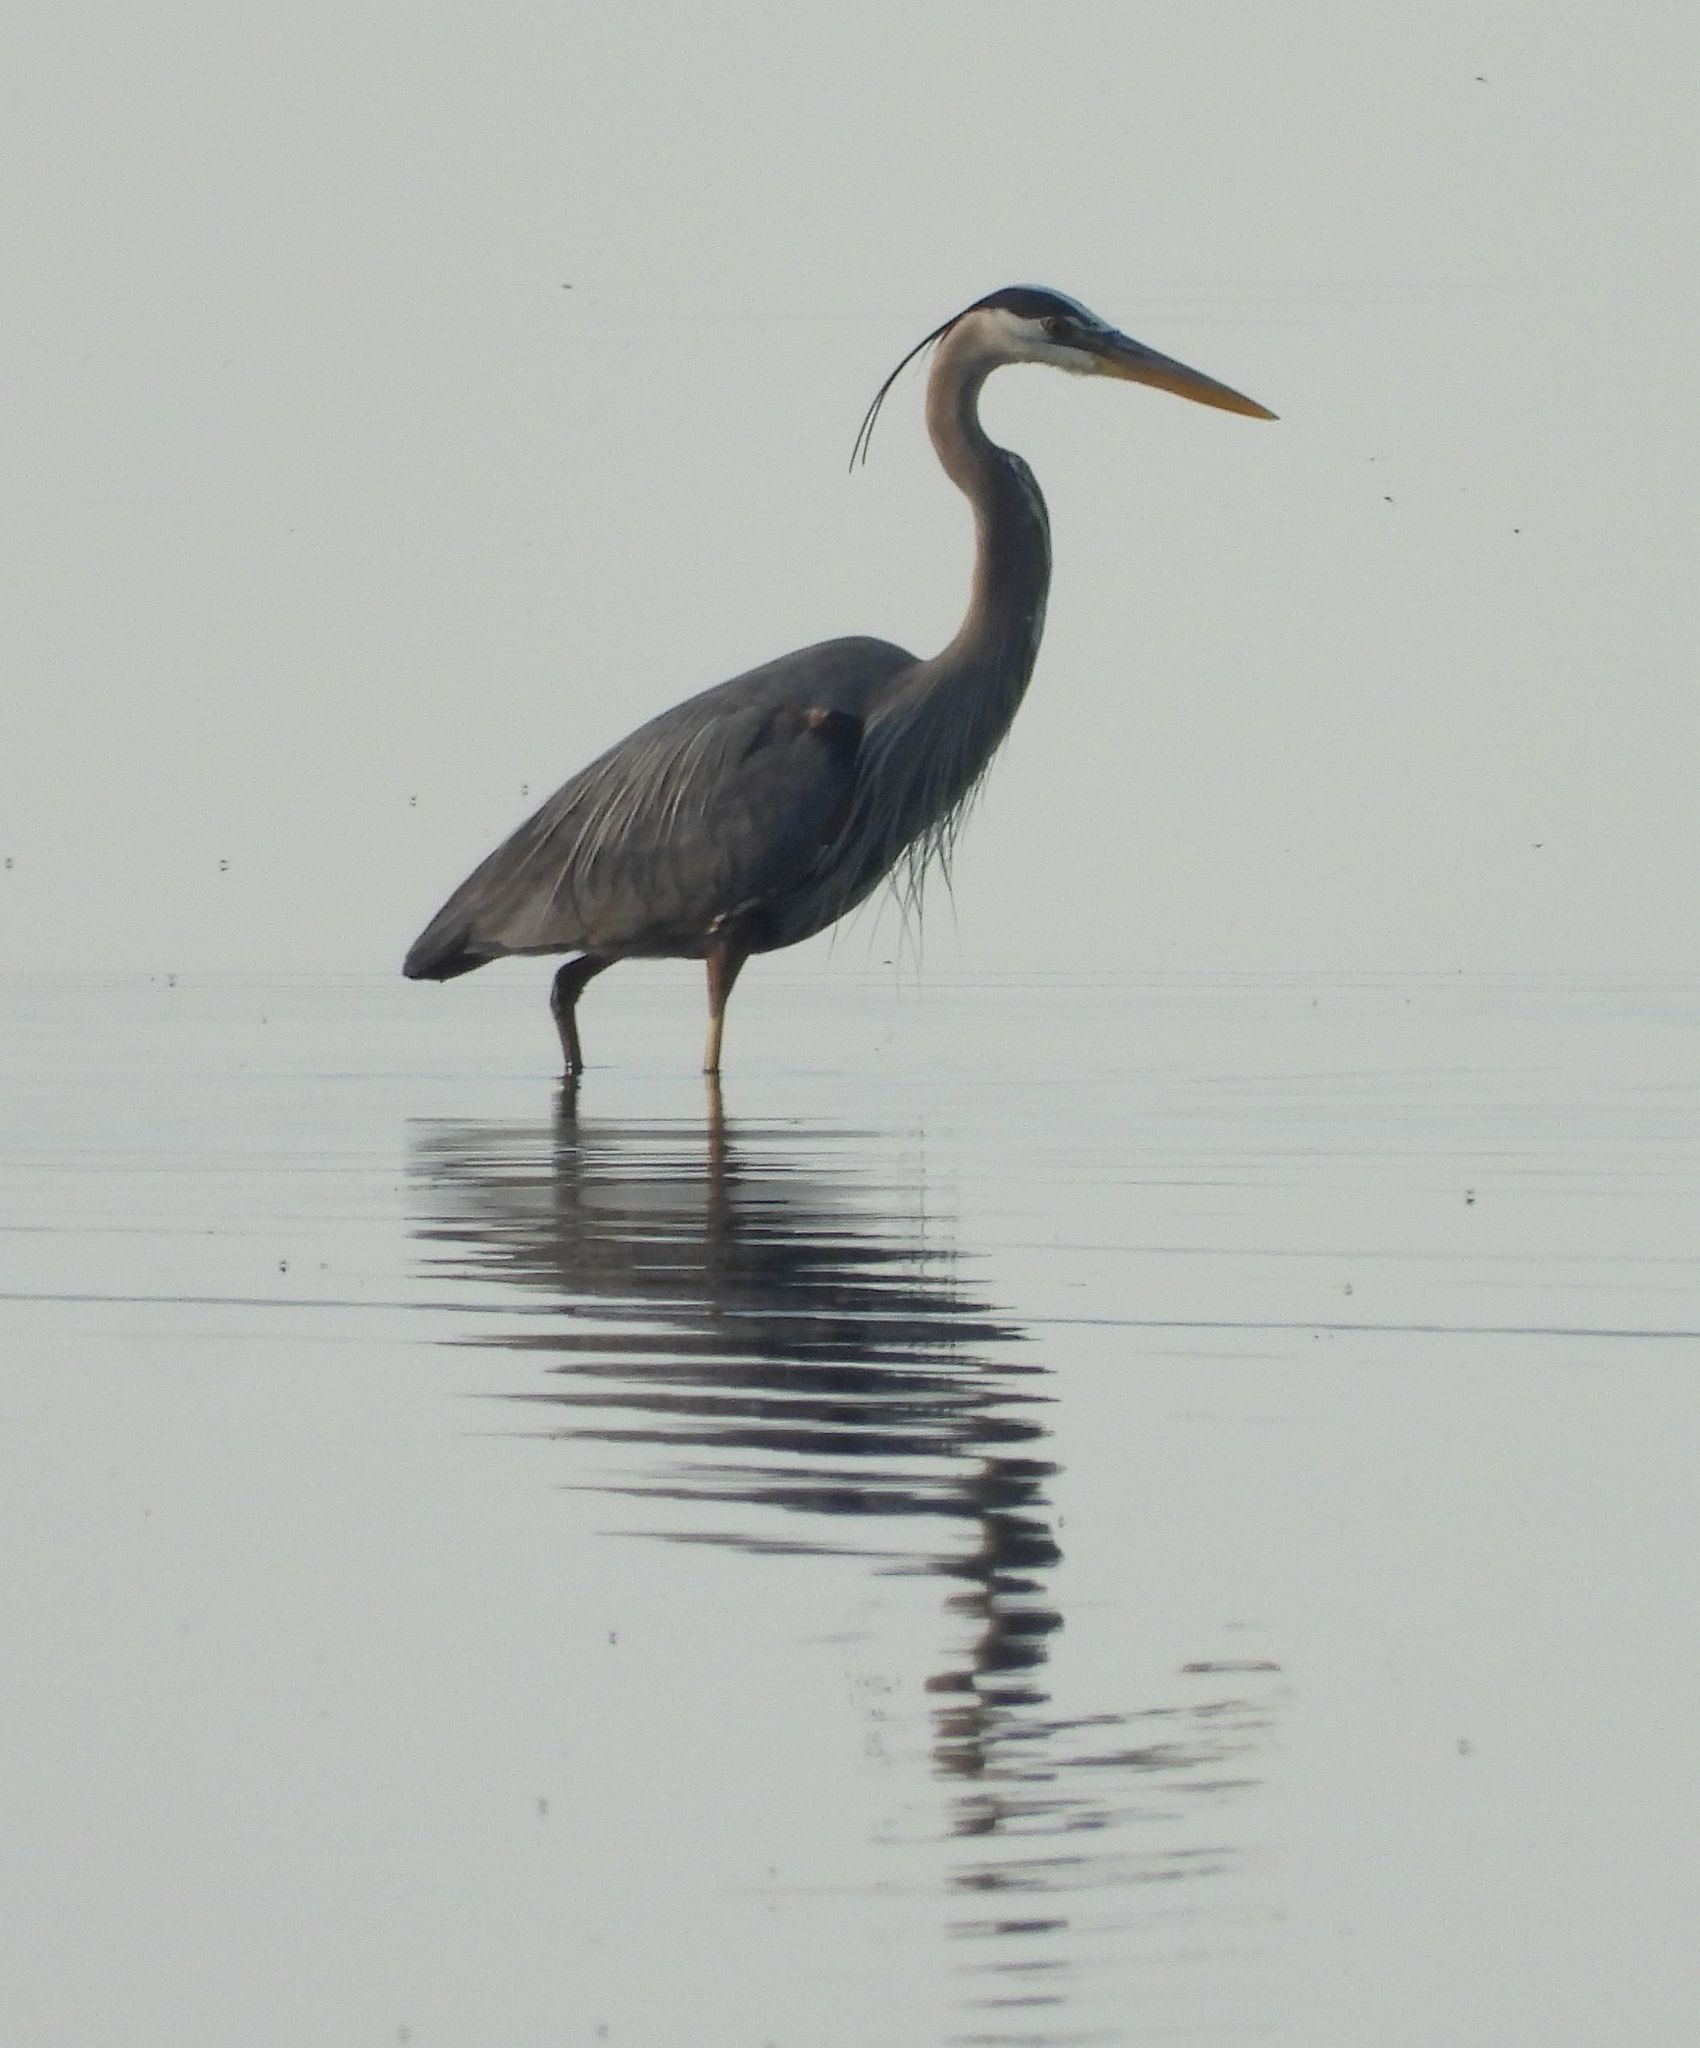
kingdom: Animalia
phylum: Chordata
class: Aves
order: Pelecaniformes
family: Ardeidae
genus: Ardea
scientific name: Ardea herodias
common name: Great blue heron
